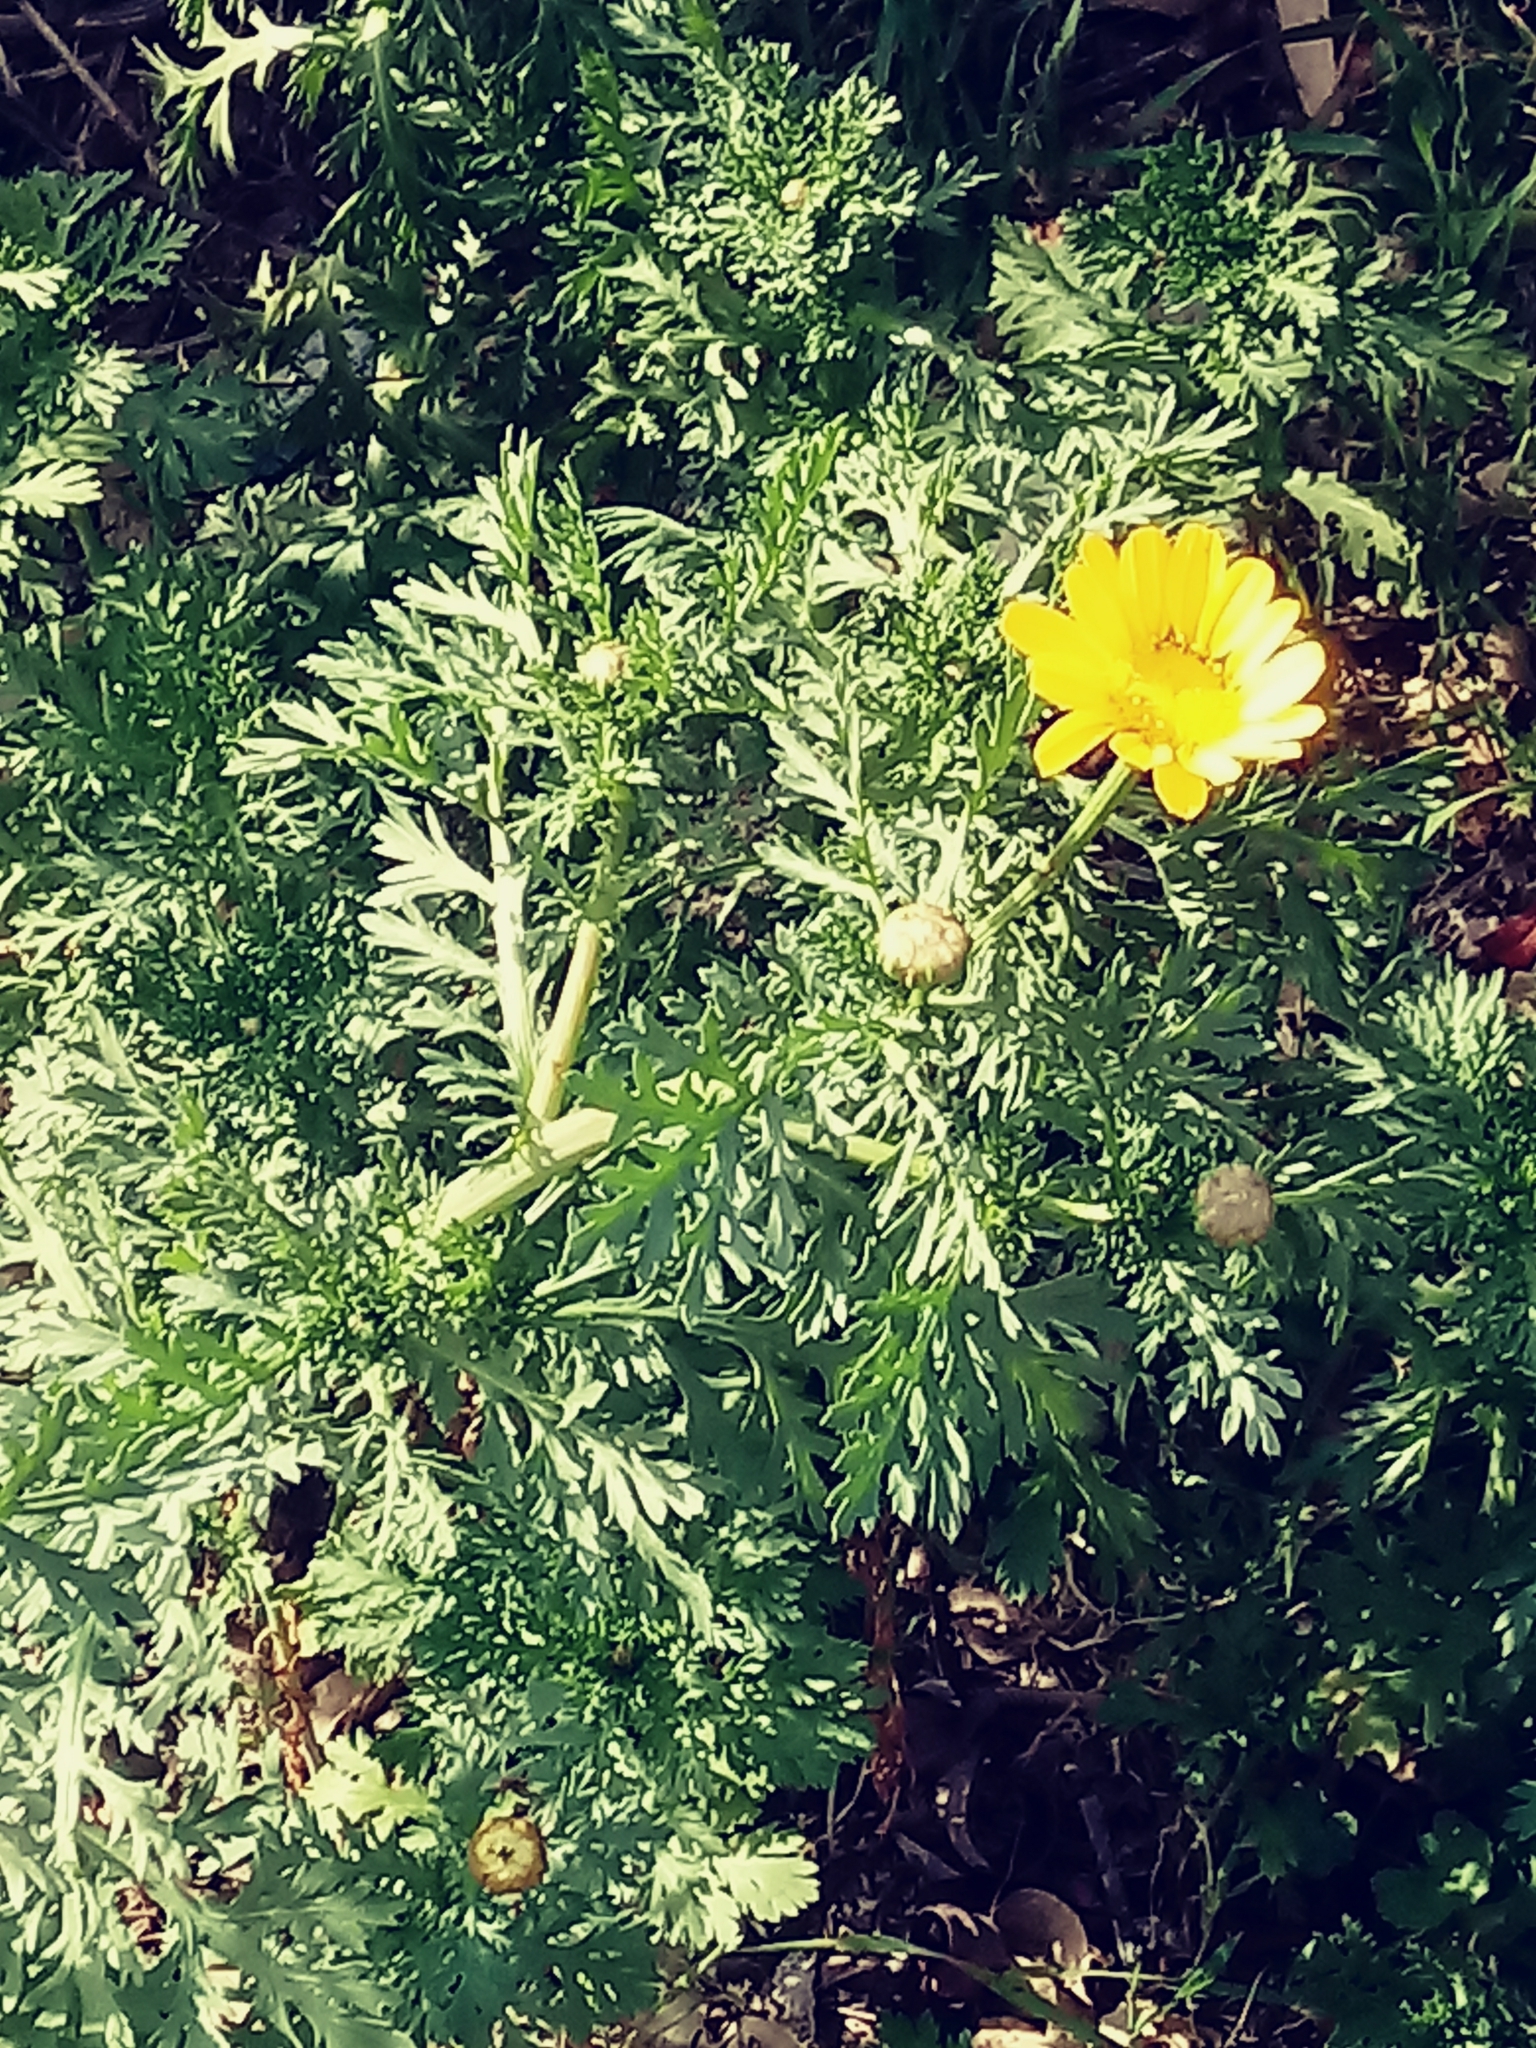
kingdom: Plantae
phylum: Tracheophyta
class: Magnoliopsida
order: Asterales
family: Asteraceae
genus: Glebionis
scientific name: Glebionis coronaria
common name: Crowndaisy
